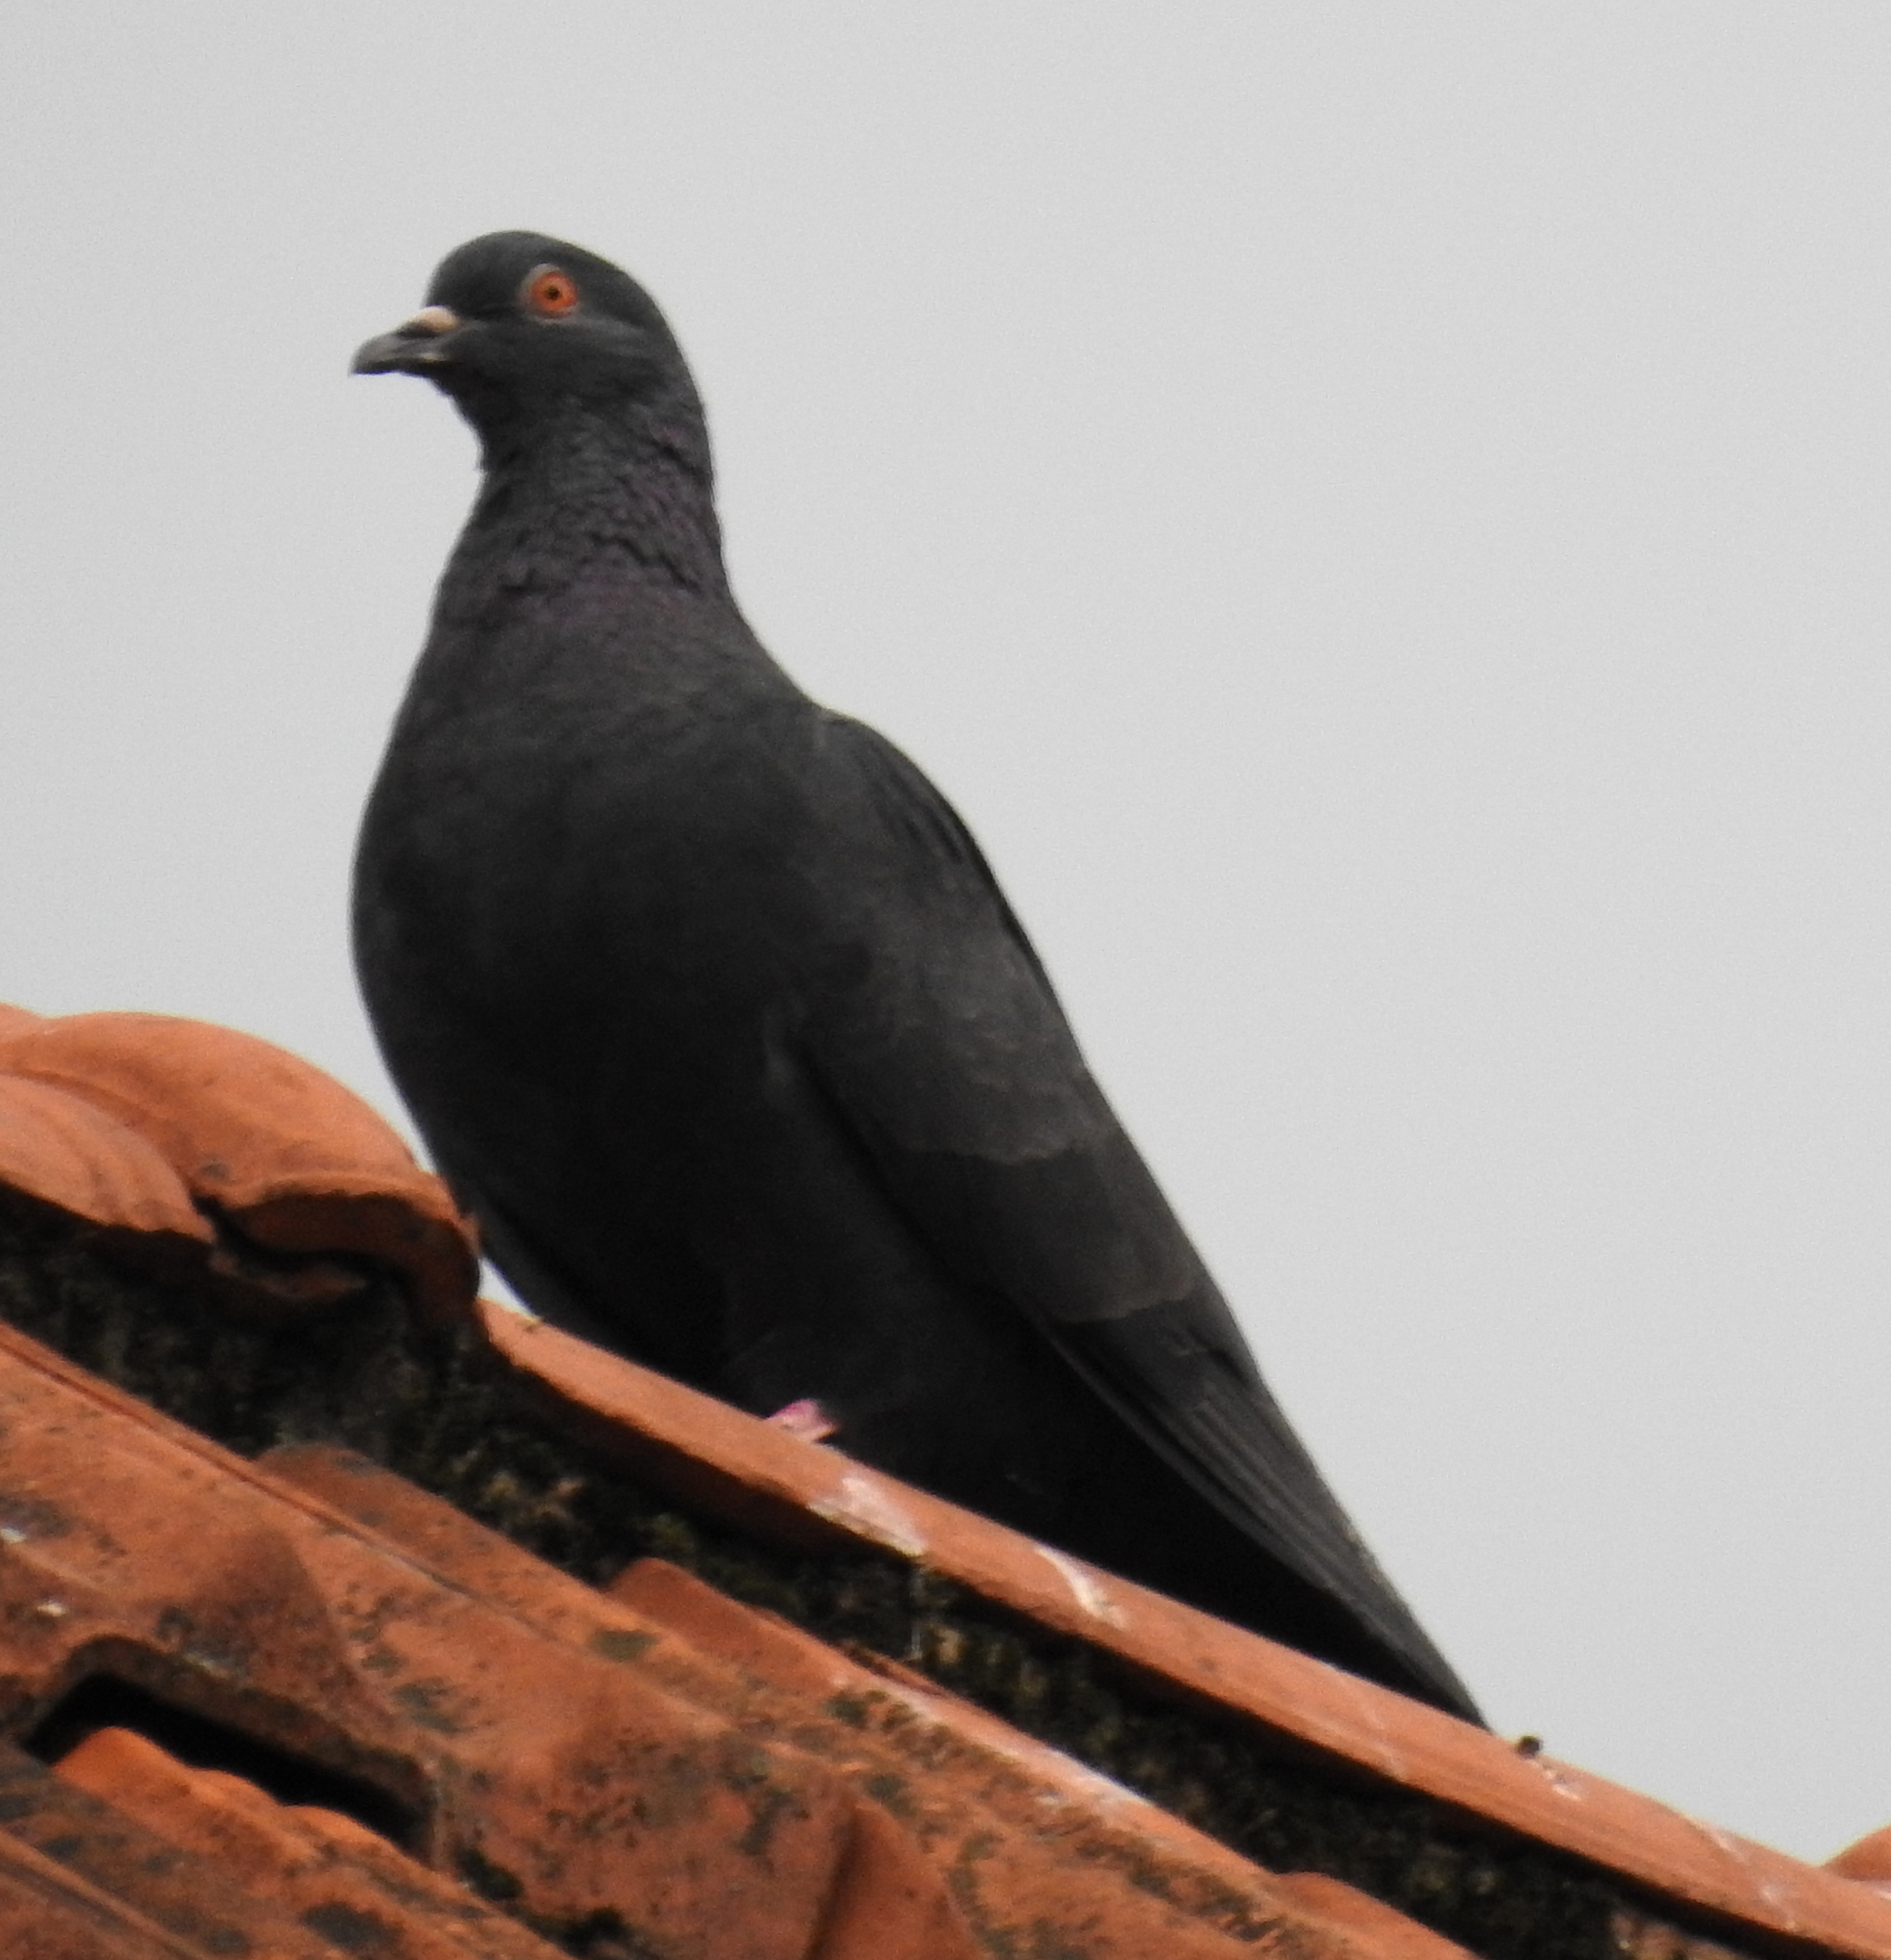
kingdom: Animalia
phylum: Chordata
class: Aves
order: Columbiformes
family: Columbidae
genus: Columba
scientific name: Columba livia
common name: Rock pigeon
